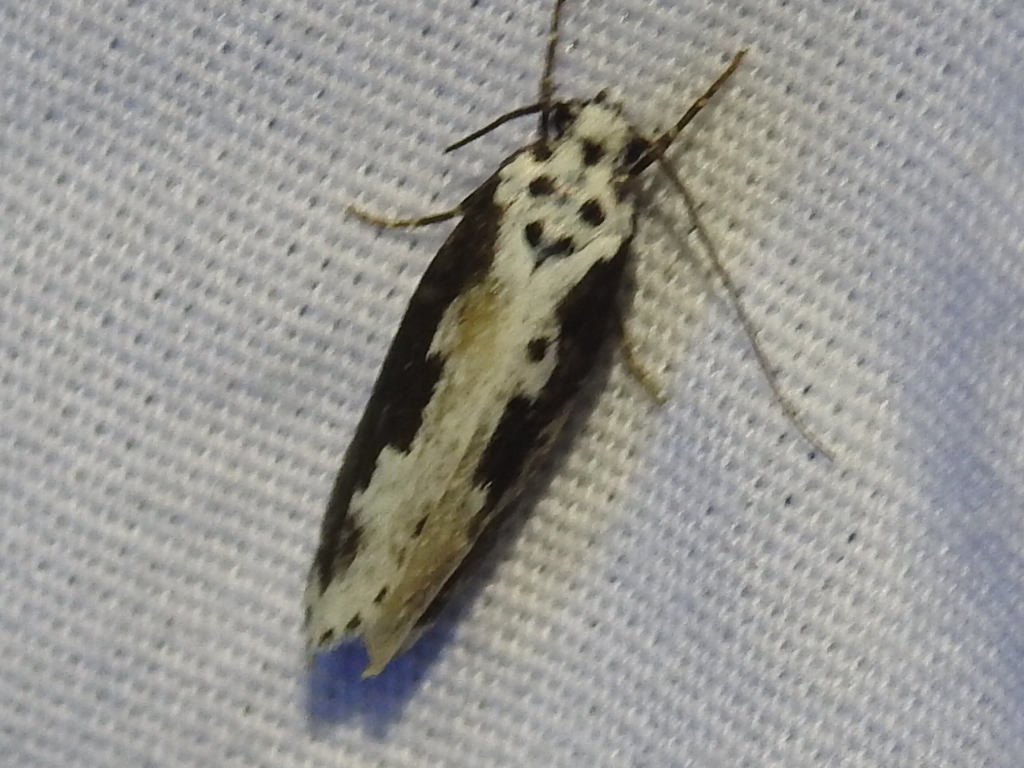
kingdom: Animalia
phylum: Arthropoda
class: Insecta
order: Lepidoptera
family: Ethmiidae
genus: Ethmia
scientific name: Ethmia semilugens
